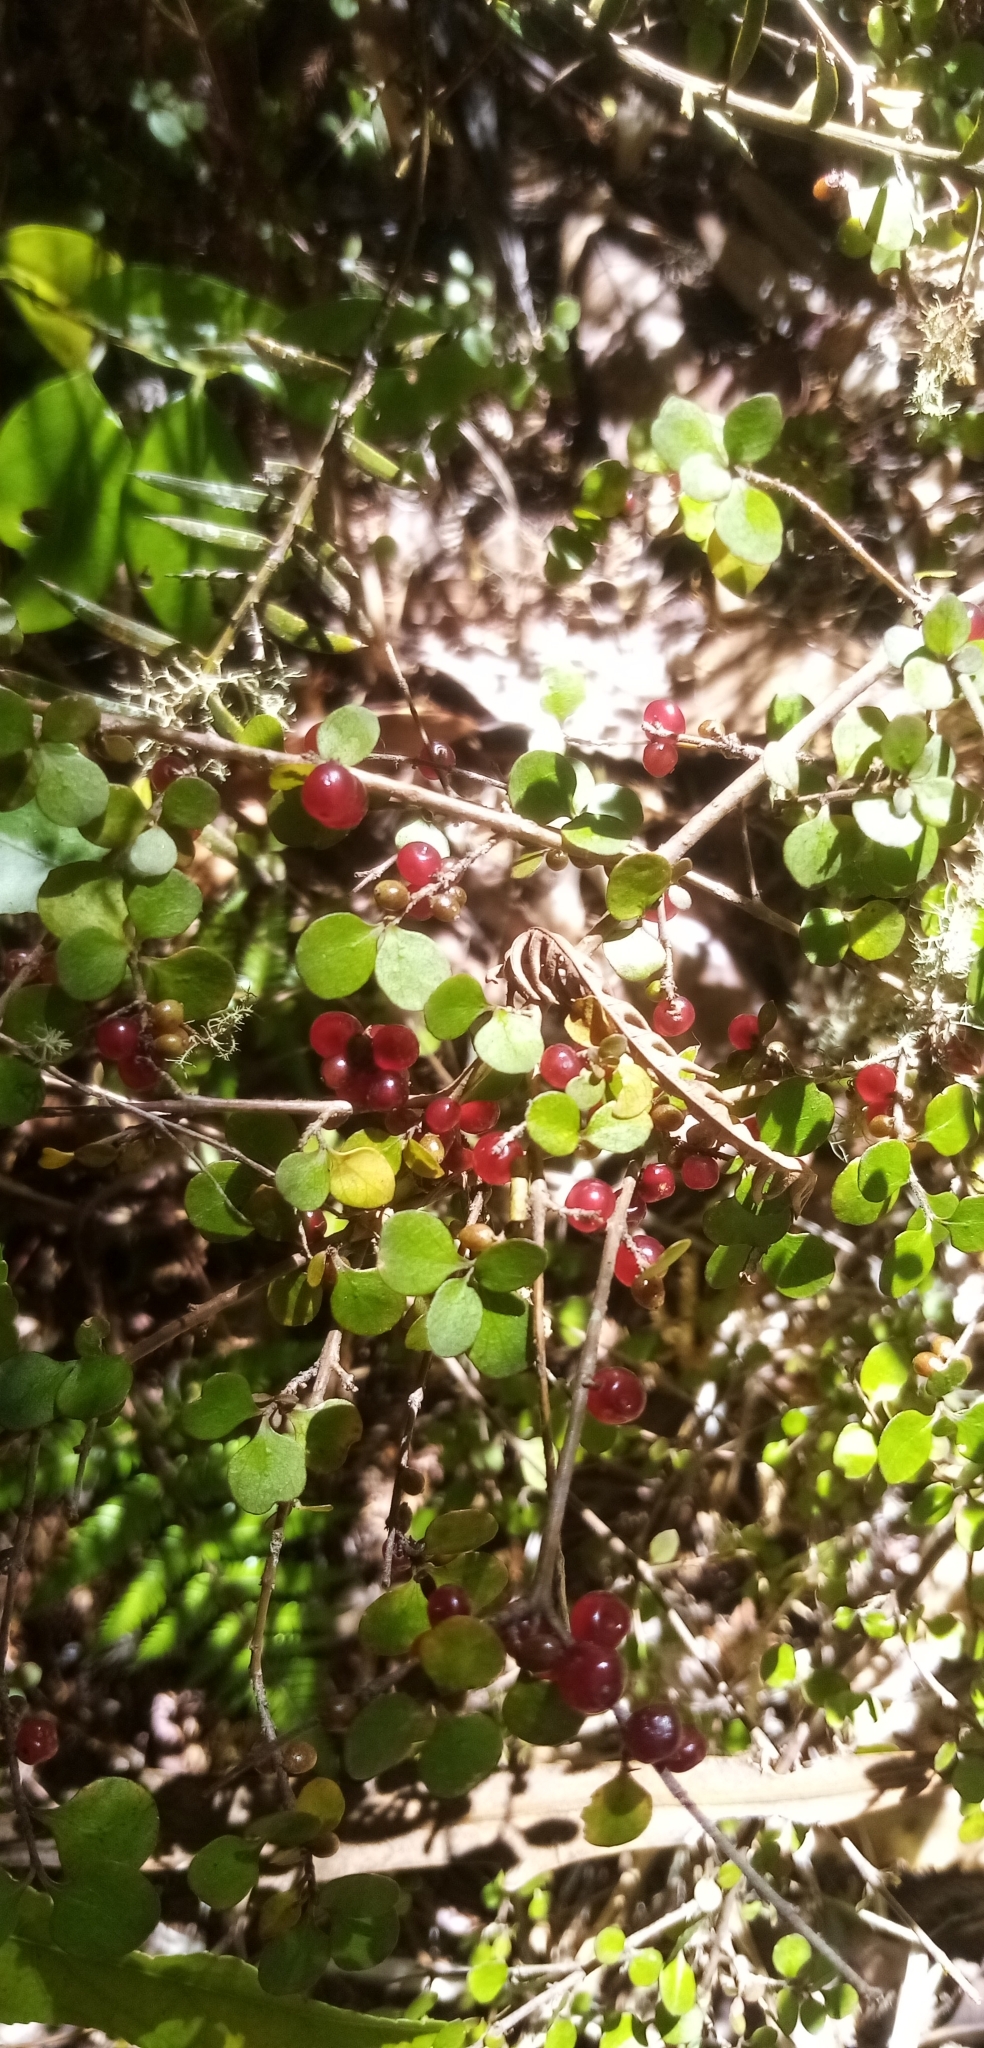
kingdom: Plantae
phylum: Tracheophyta
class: Magnoliopsida
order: Gentianales
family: Rubiaceae
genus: Coprosma
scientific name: Coprosma rhamnoides
